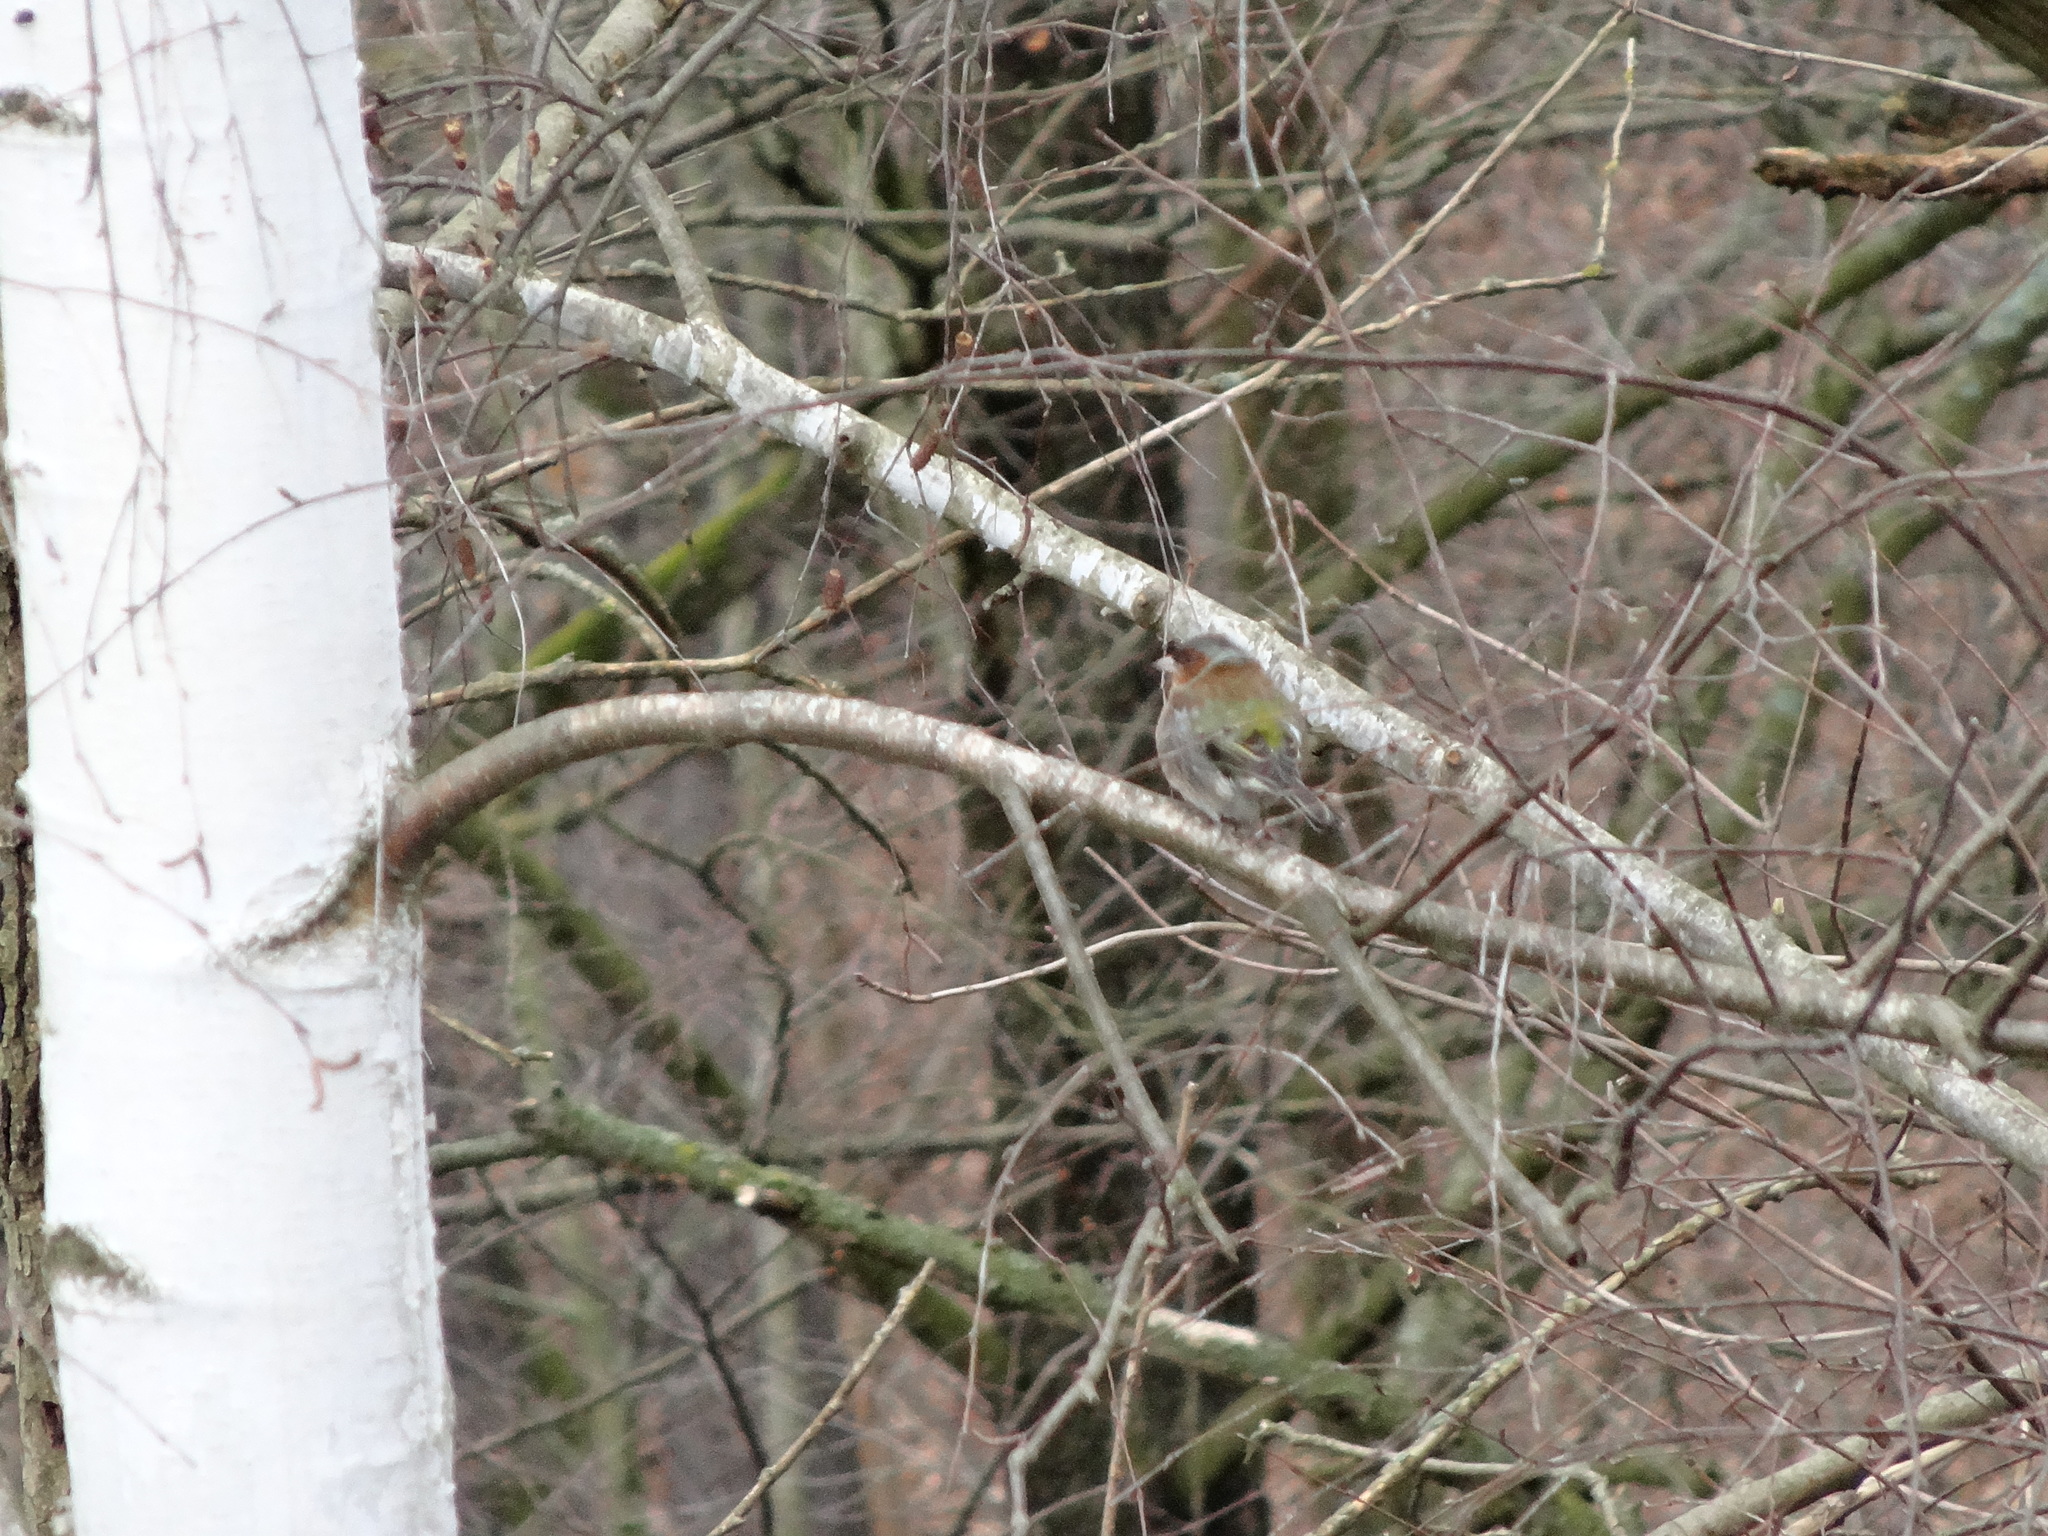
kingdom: Animalia
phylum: Chordata
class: Aves
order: Passeriformes
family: Fringillidae
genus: Fringilla
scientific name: Fringilla coelebs
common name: Common chaffinch
